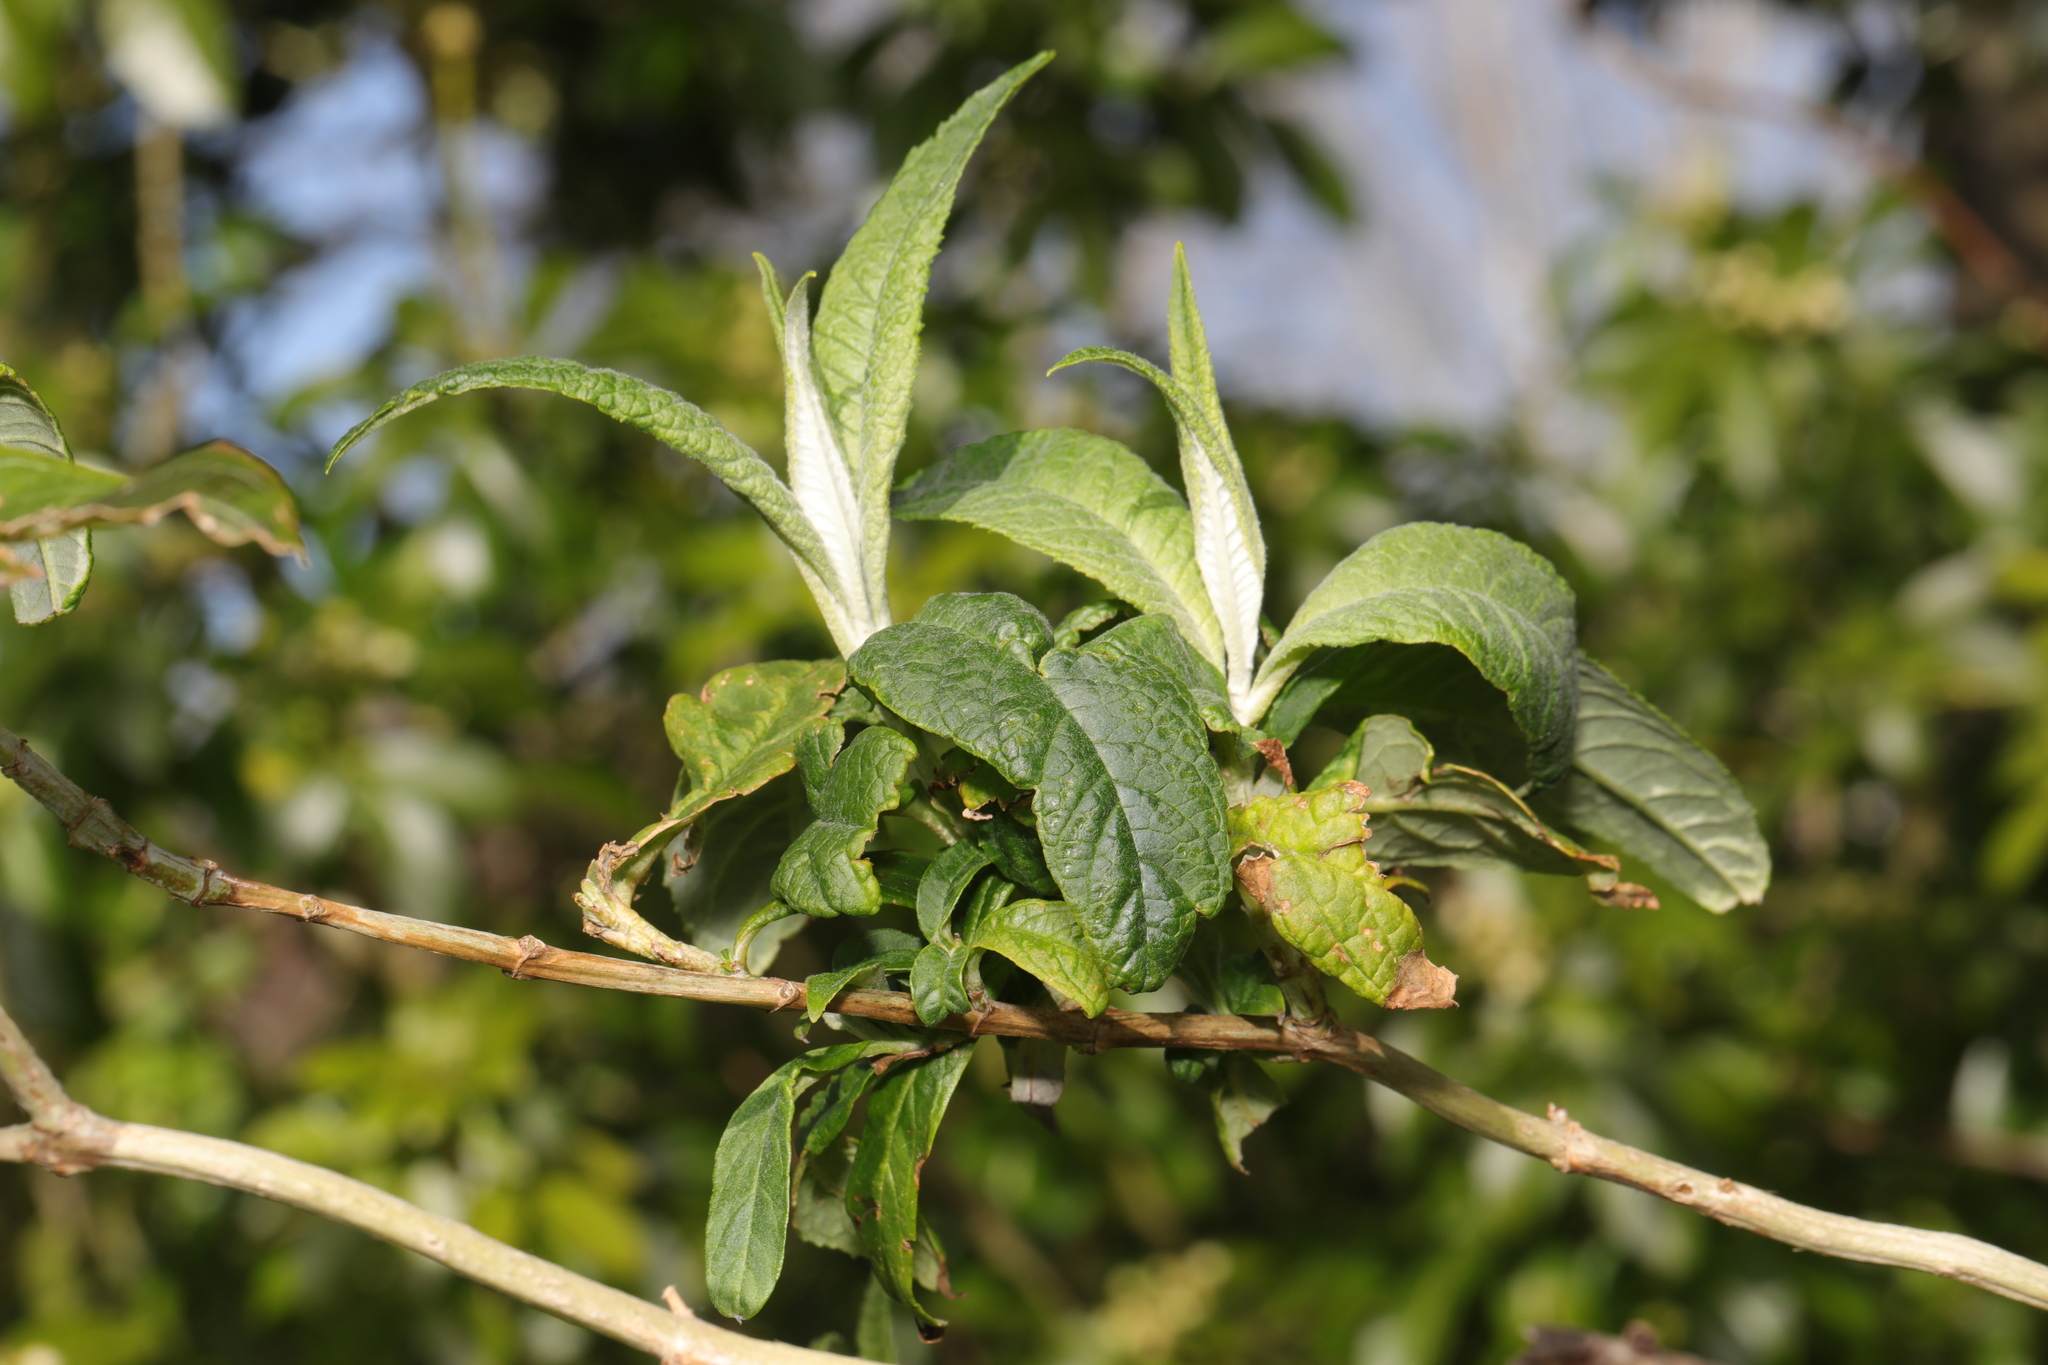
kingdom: Plantae
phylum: Tracheophyta
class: Magnoliopsida
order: Lamiales
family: Scrophulariaceae
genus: Buddleja
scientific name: Buddleja davidii
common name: Butterfly-bush
